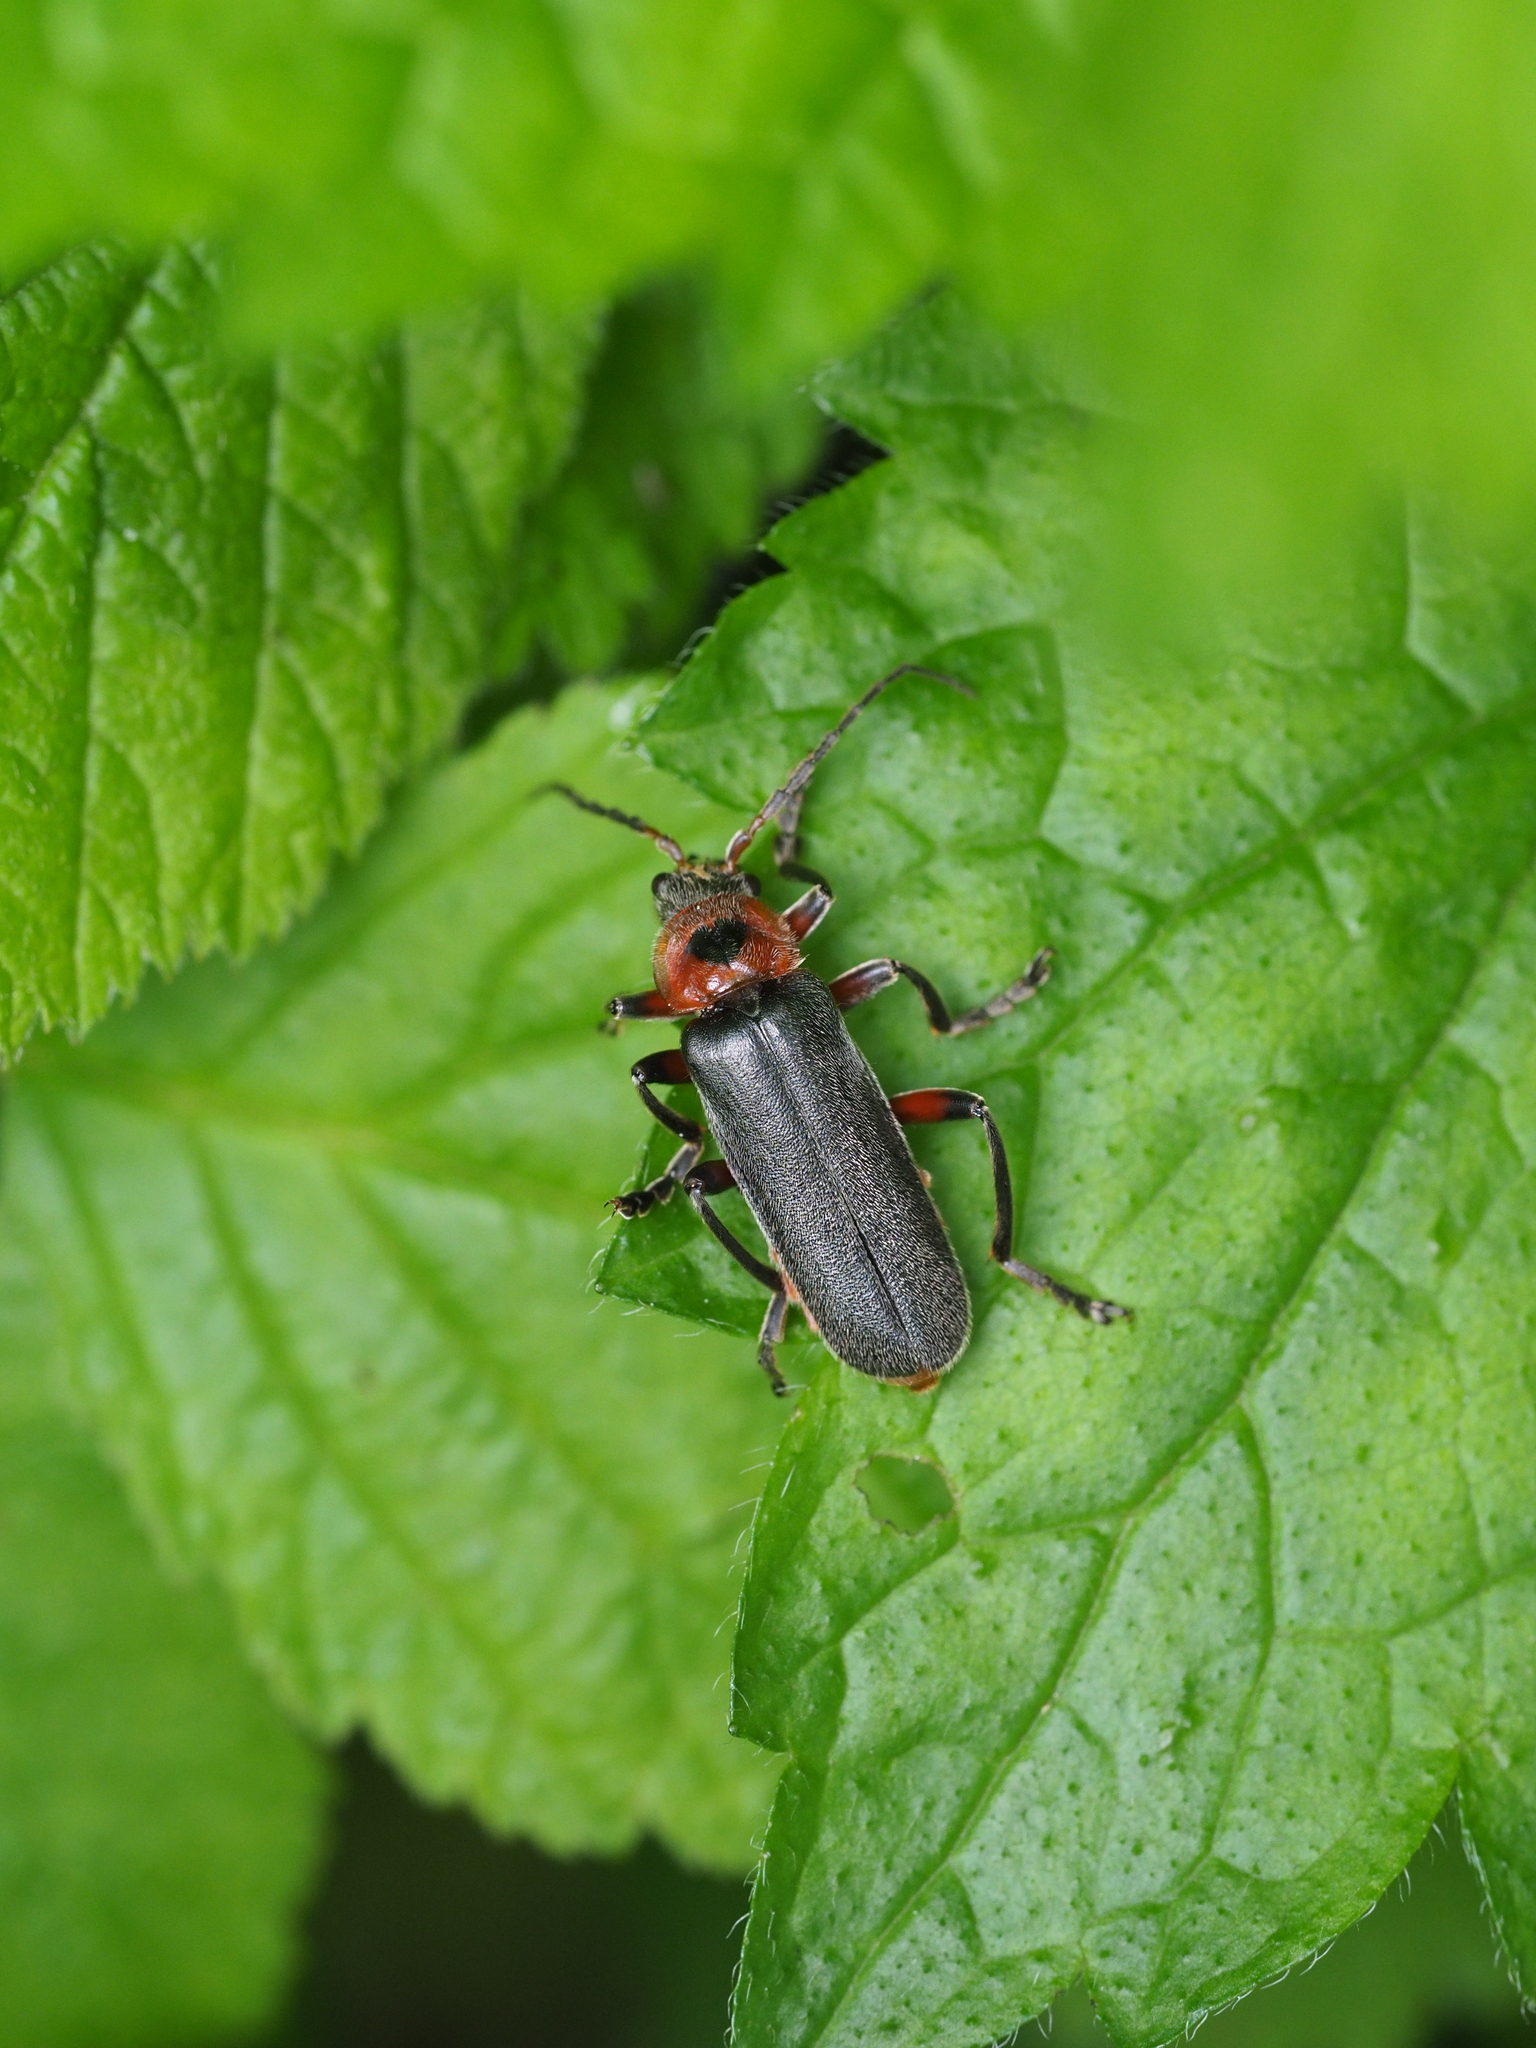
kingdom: Animalia
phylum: Arthropoda
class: Insecta
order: Coleoptera
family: Cantharidae
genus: Cantharis
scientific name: Cantharis rustica
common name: Soldier beetle
